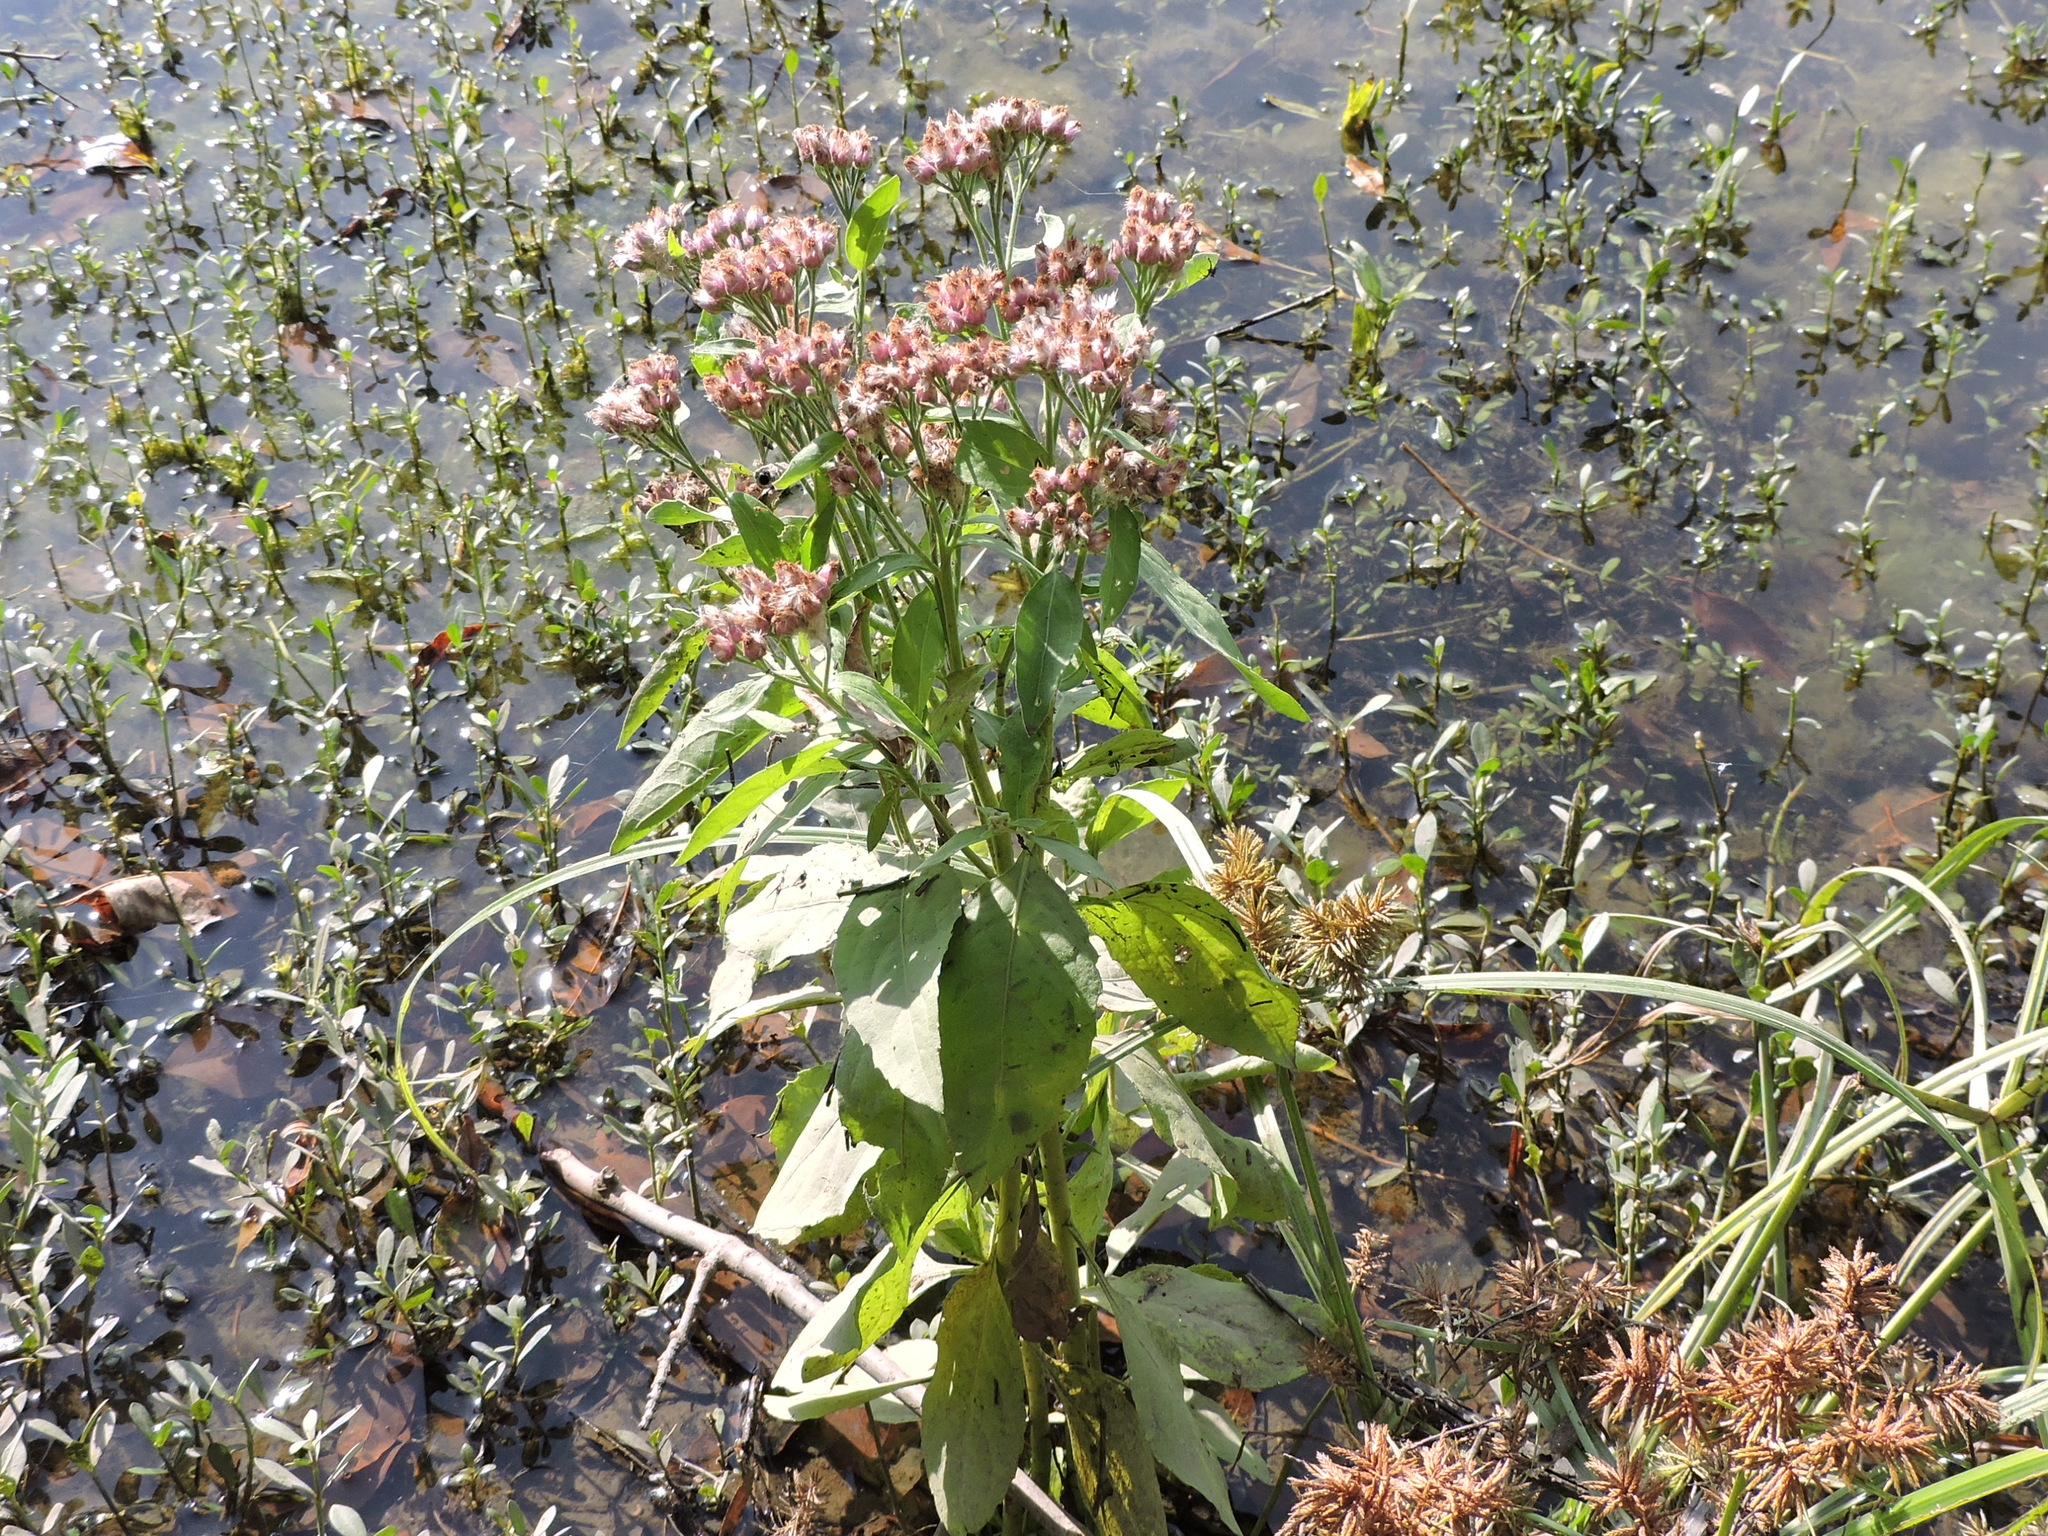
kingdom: Plantae
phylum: Tracheophyta
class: Magnoliopsida
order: Asterales
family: Asteraceae
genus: Pluchea
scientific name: Pluchea odorata
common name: Saltmarsh fleabane
